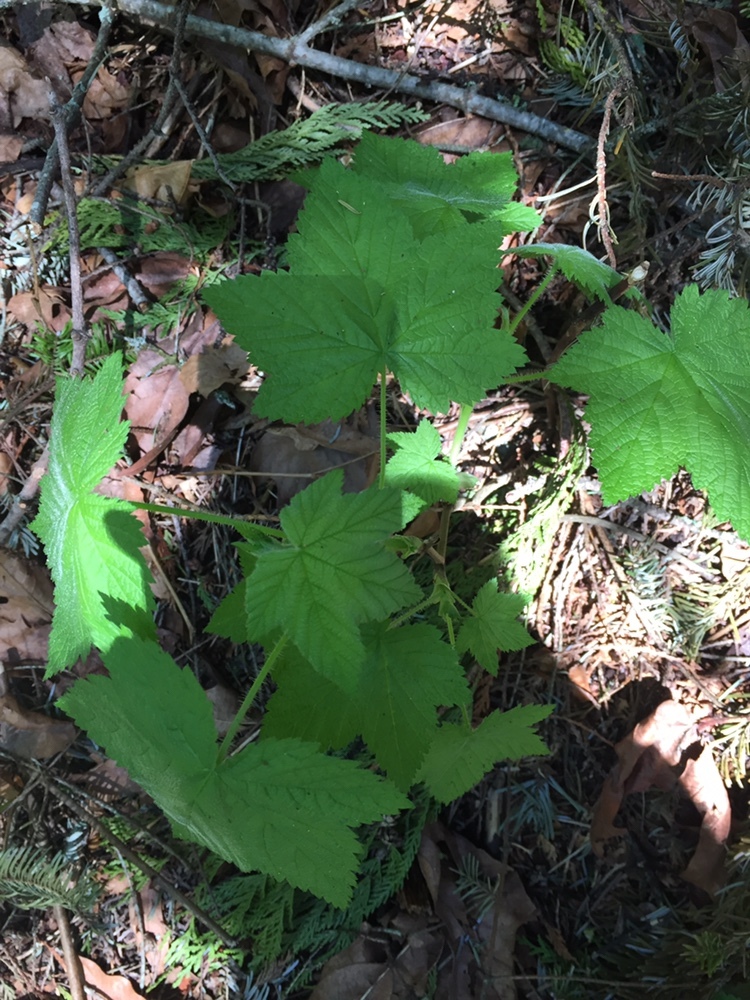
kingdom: Plantae
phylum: Tracheophyta
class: Magnoliopsida
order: Rosales
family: Rosaceae
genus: Rubus
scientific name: Rubus parviflorus
